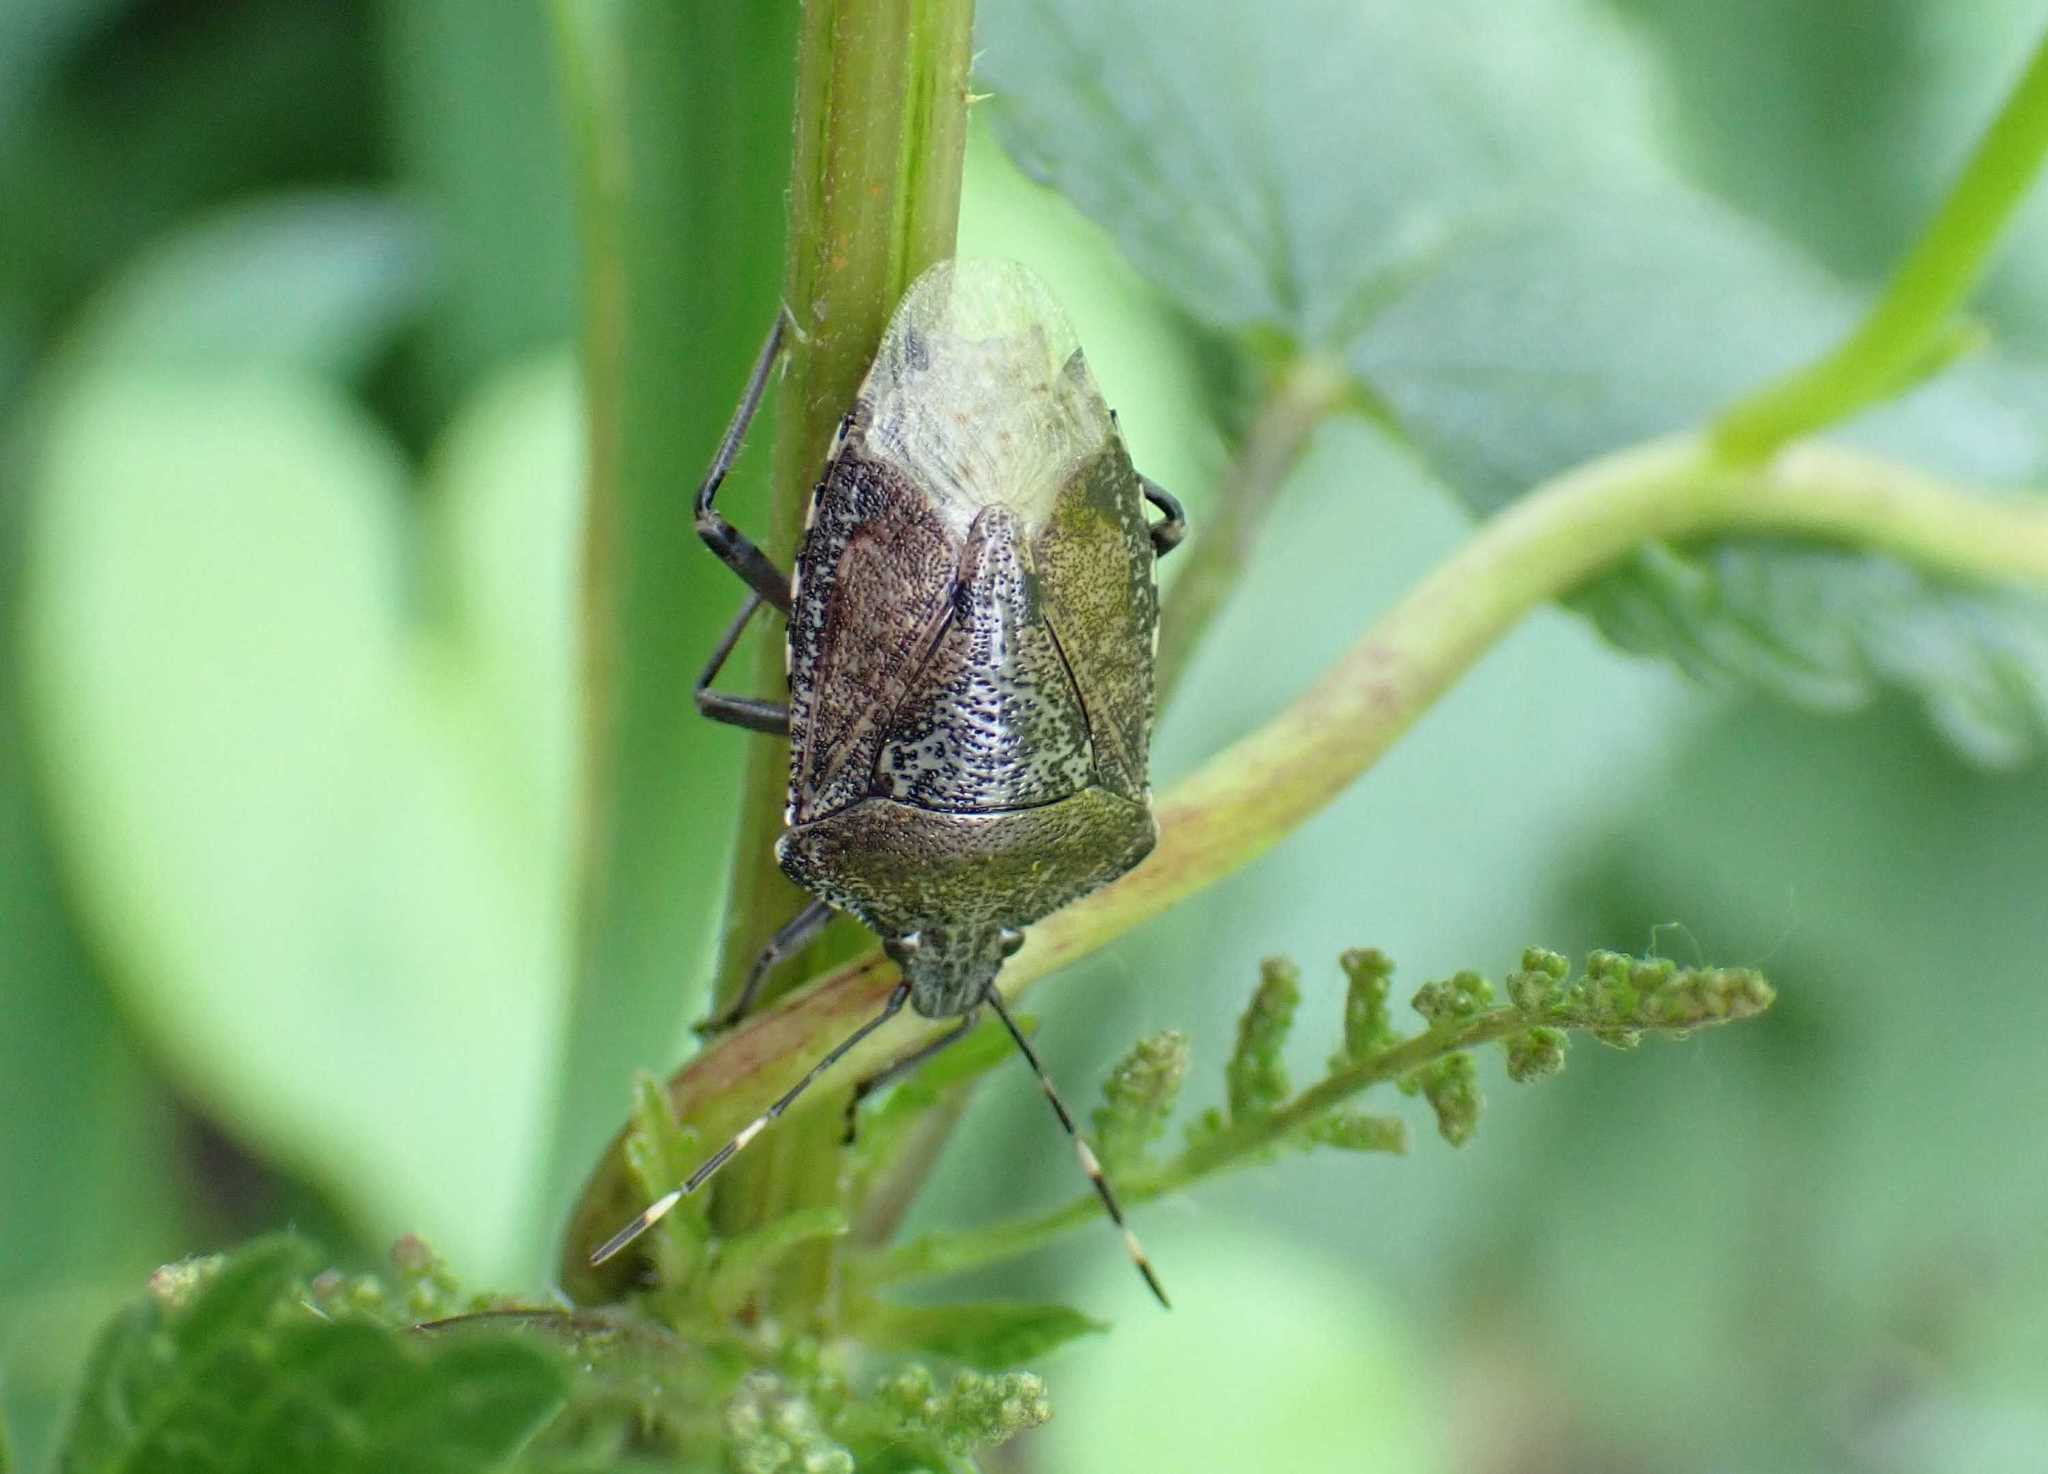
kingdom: Animalia
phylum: Arthropoda
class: Insecta
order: Hemiptera
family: Pentatomidae
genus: Rhaphigaster
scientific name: Rhaphigaster nebulosa
